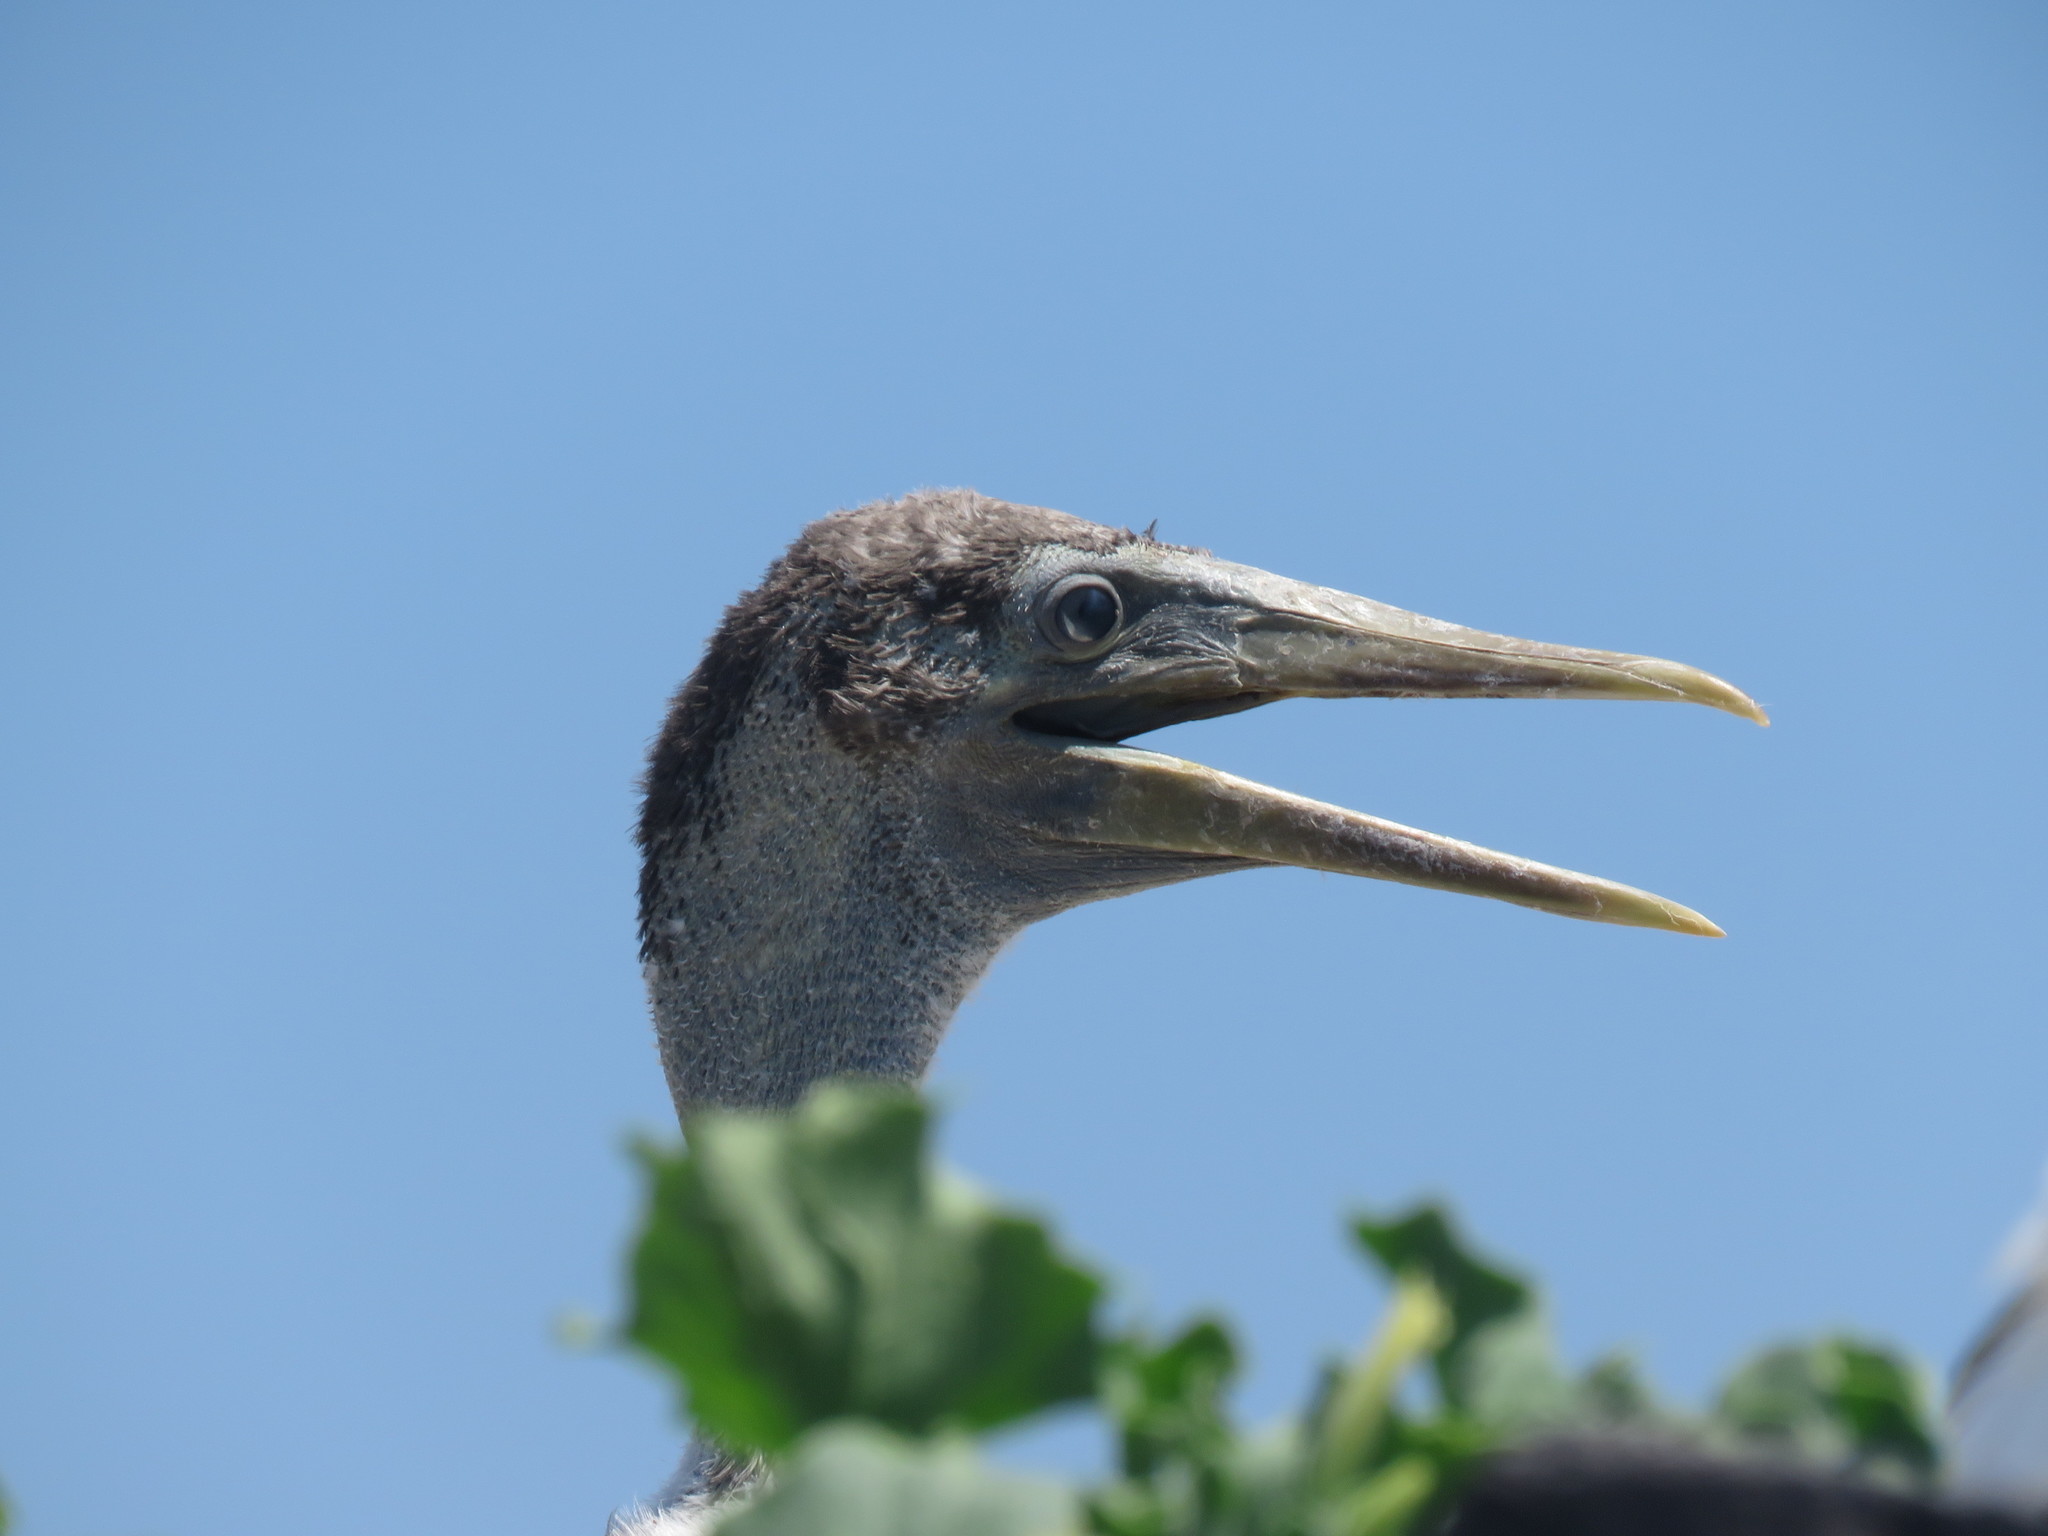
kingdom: Animalia
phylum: Chordata
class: Aves
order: Suliformes
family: Sulidae
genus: Sula
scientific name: Sula granti
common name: Nazca booby
